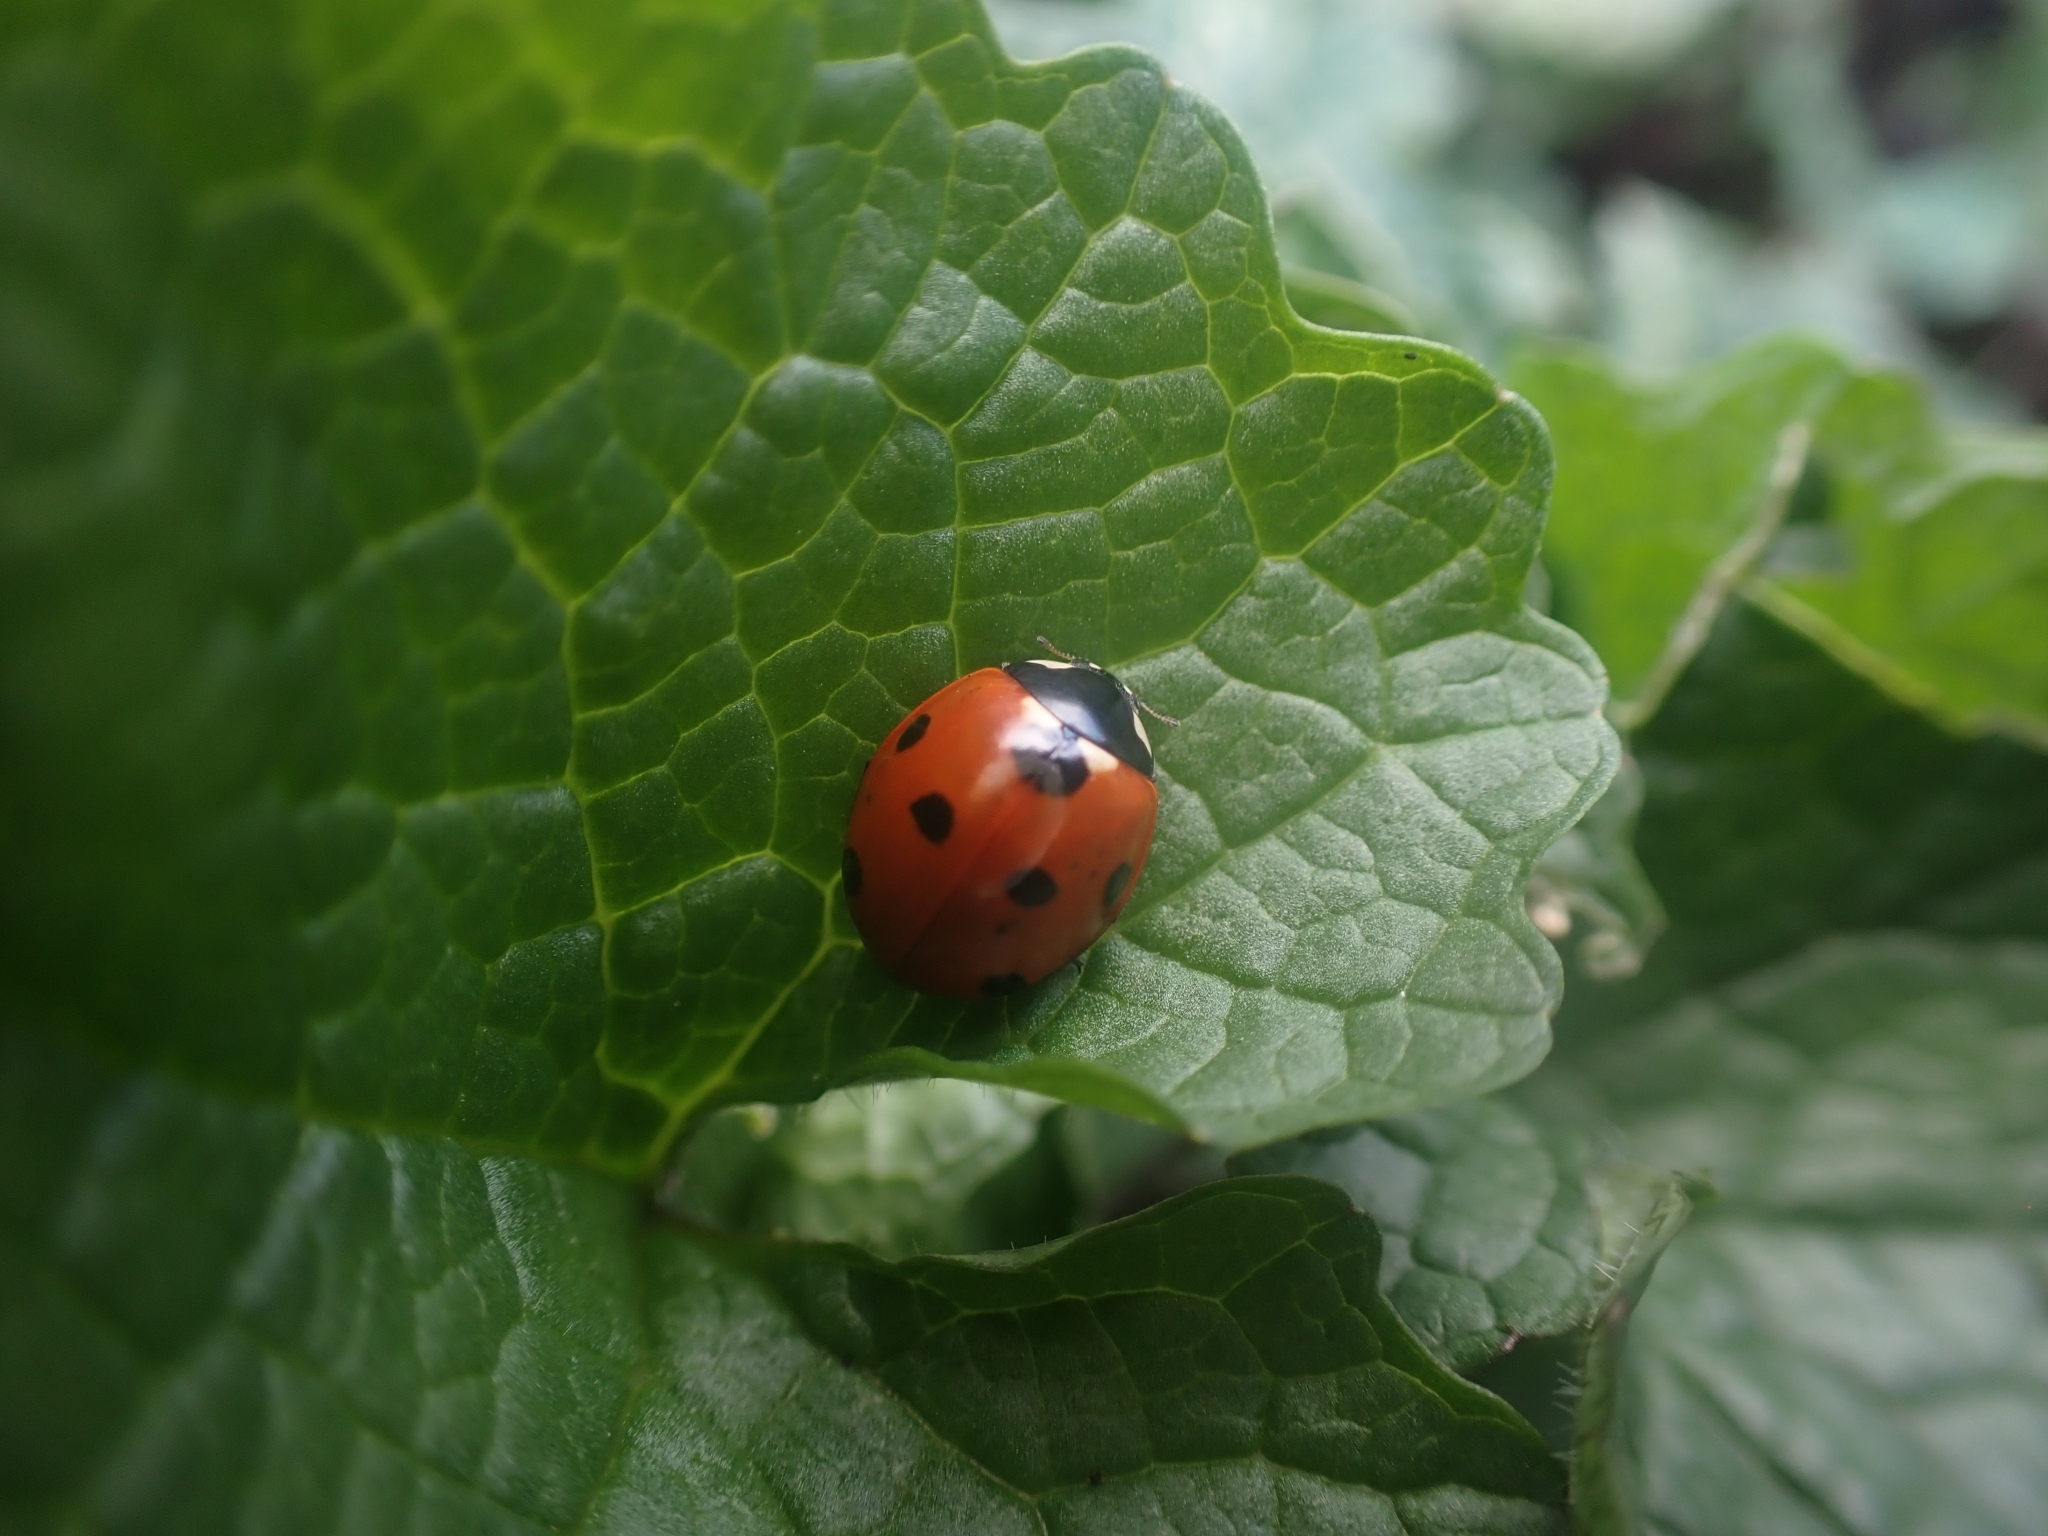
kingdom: Animalia
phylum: Arthropoda
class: Insecta
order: Coleoptera
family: Coccinellidae
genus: Coccinella
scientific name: Coccinella septempunctata
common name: Sevenspotted lady beetle
